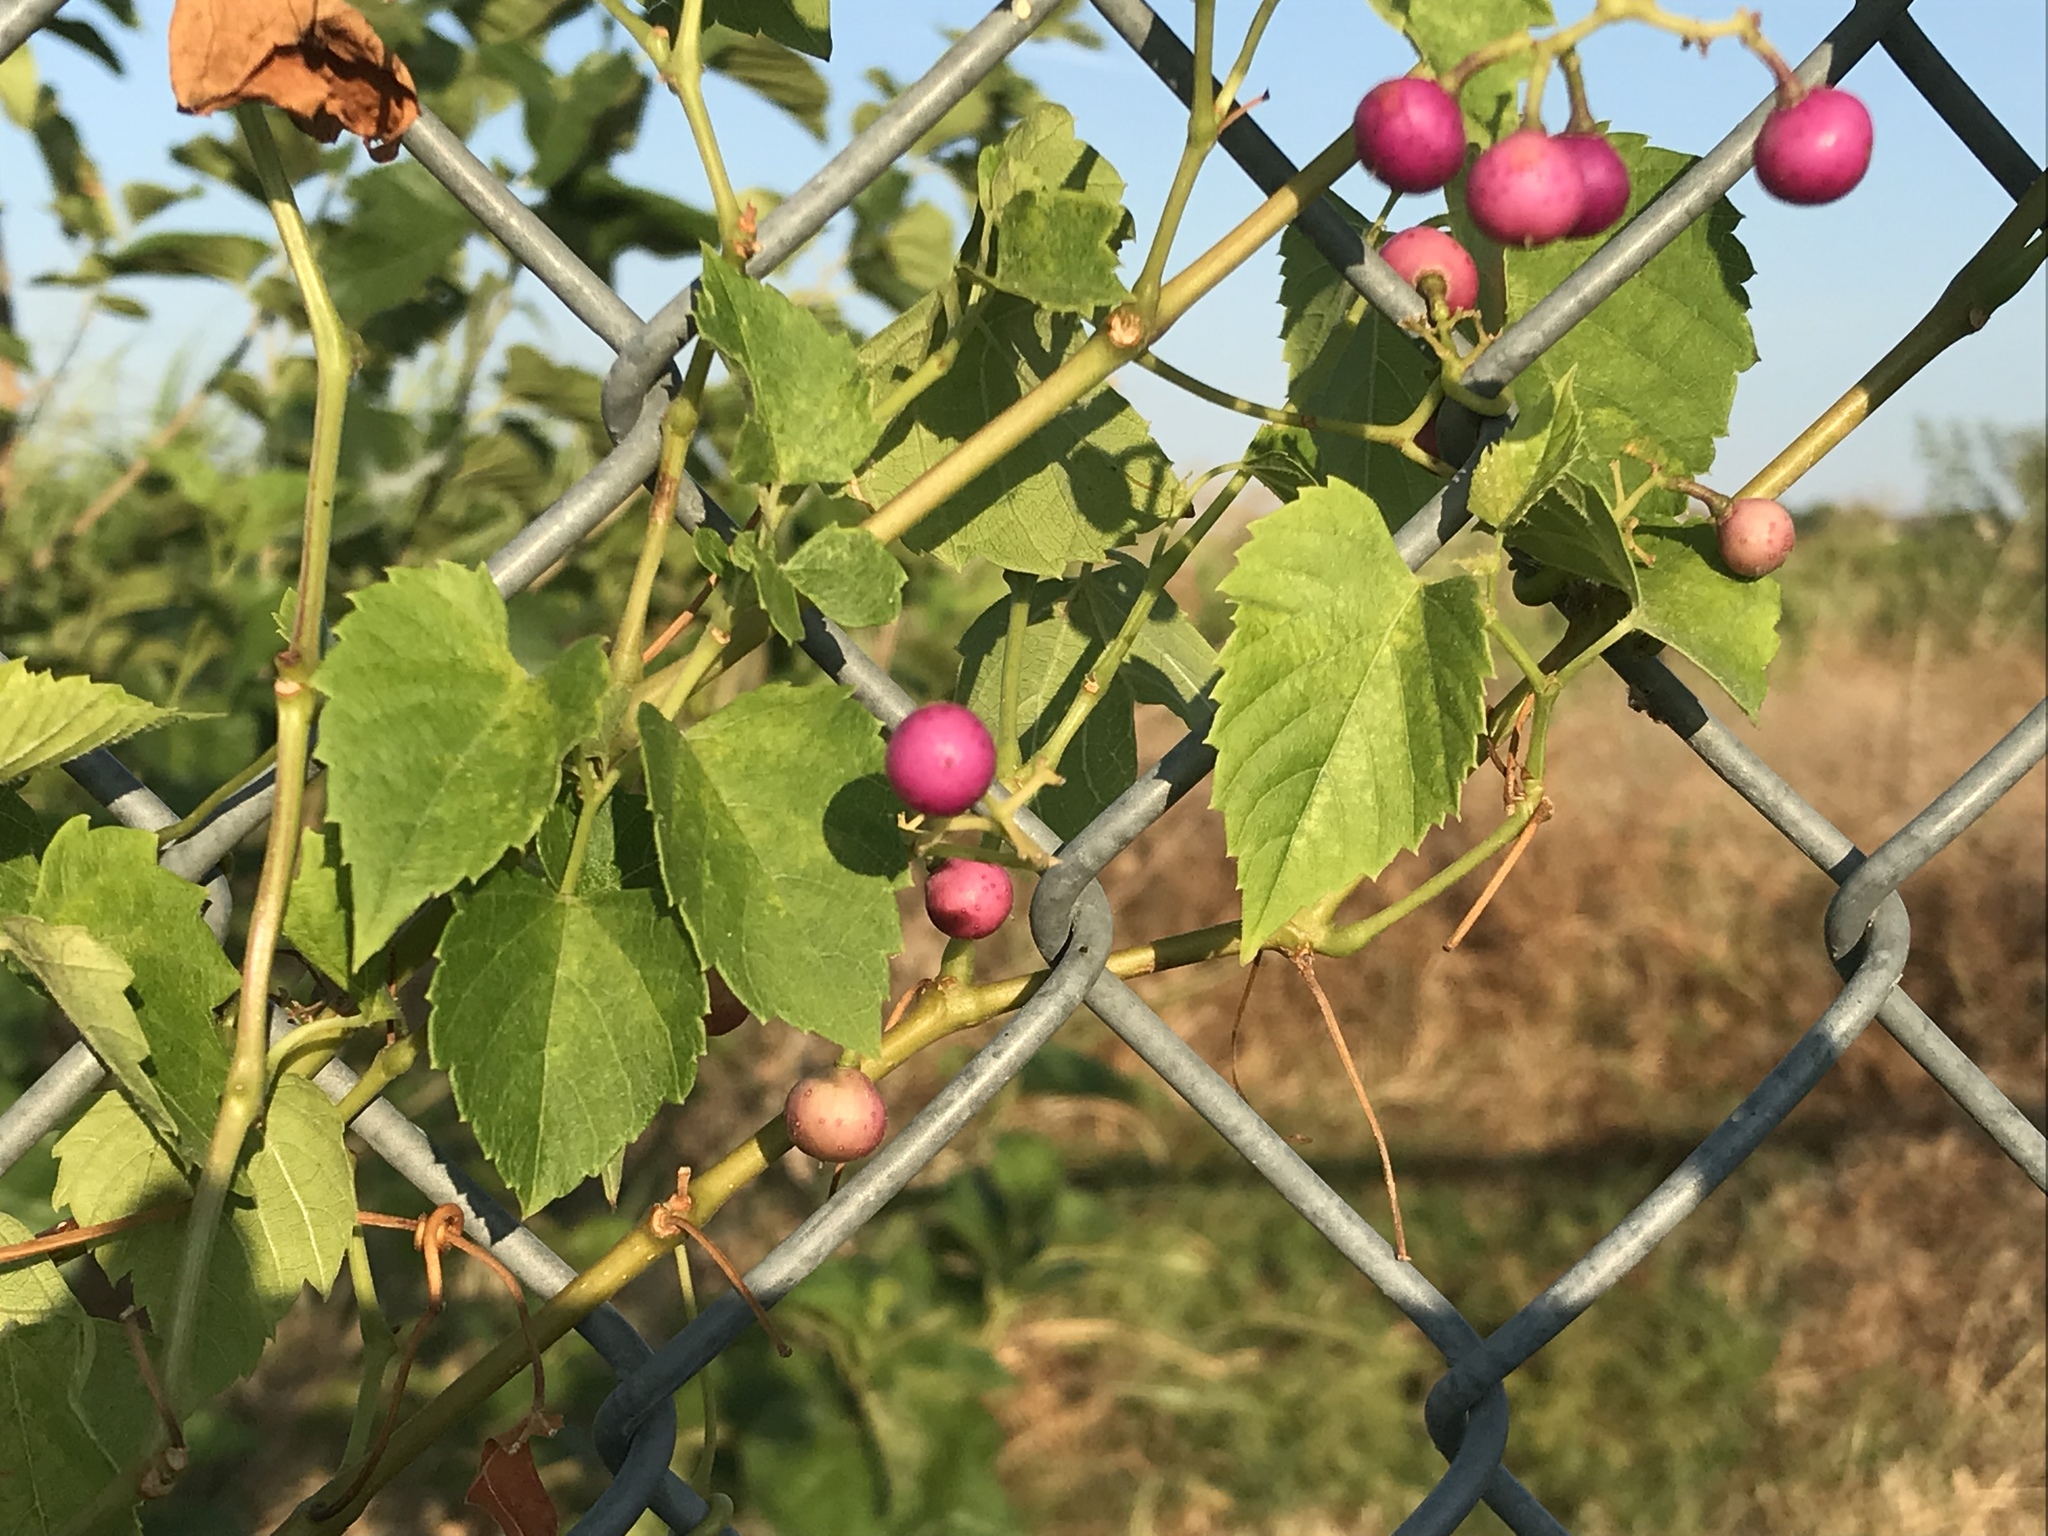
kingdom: Plantae
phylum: Tracheophyta
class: Magnoliopsida
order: Vitales
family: Vitaceae
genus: Ampelopsis
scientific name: Ampelopsis cordata
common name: Heart-leaf ampelopsis
